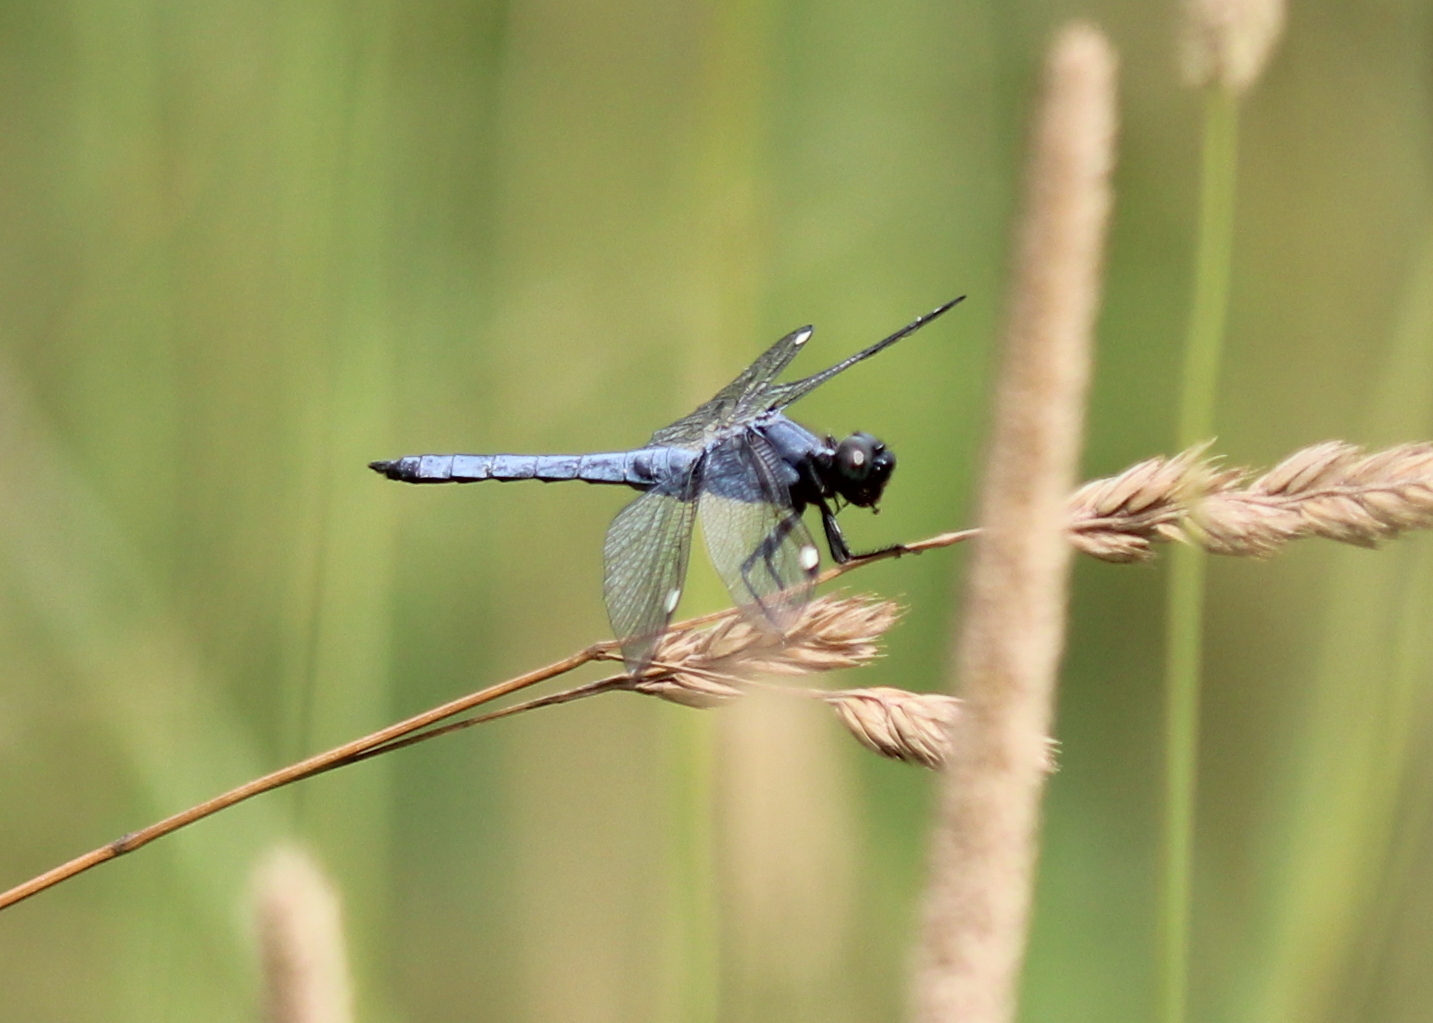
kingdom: Animalia
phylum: Arthropoda
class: Insecta
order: Odonata
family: Libellulidae
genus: Libellula
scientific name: Libellula cyanea
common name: Spangled skimmer
